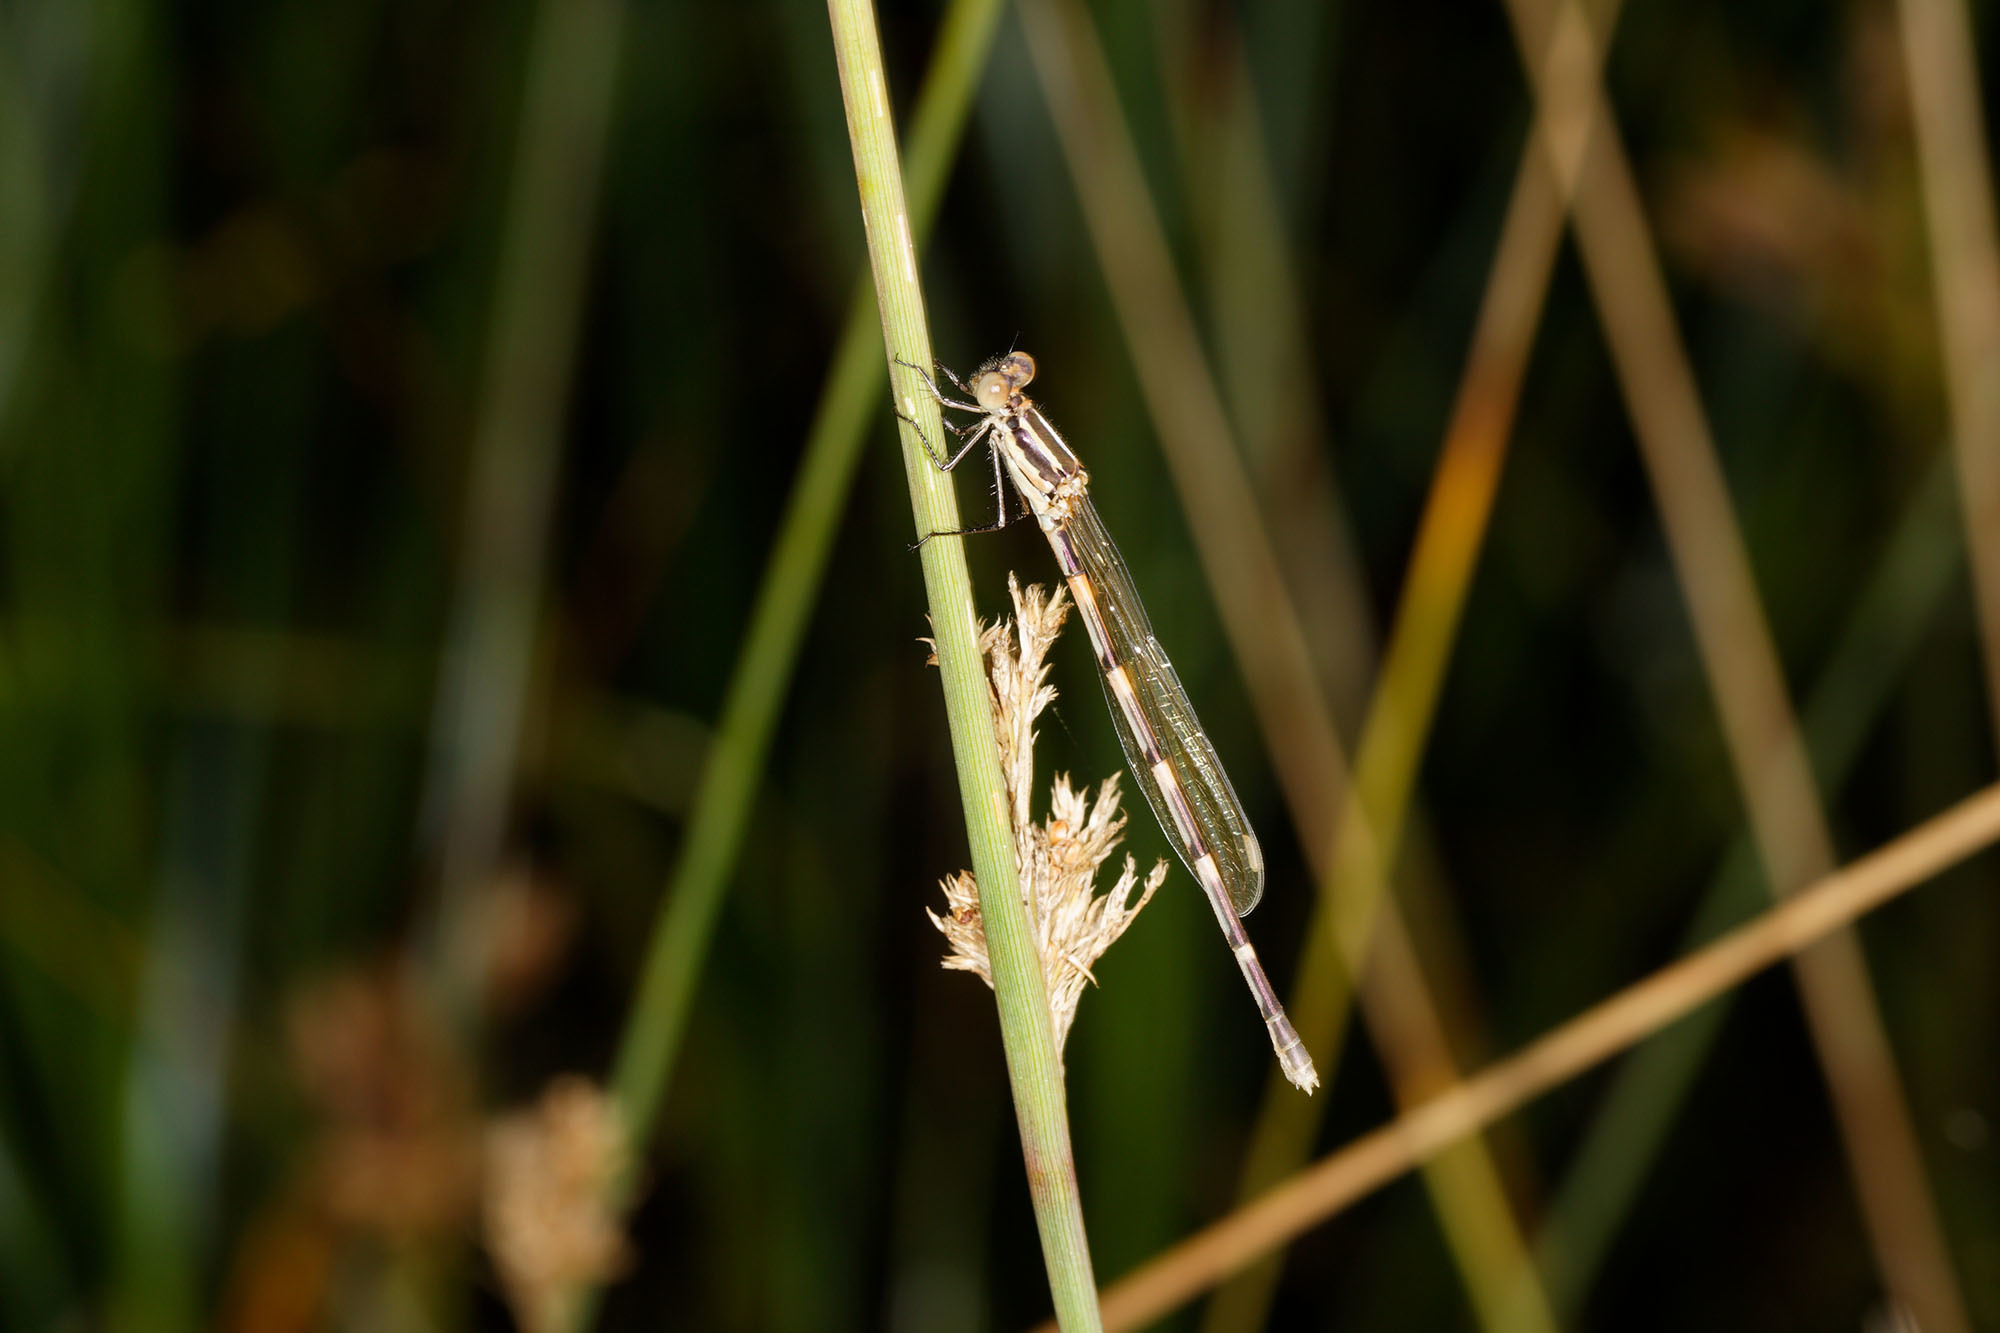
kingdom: Animalia
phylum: Arthropoda
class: Insecta
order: Odonata
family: Lestidae
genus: Austrolestes
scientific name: Austrolestes leda
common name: Wandering ringtail
